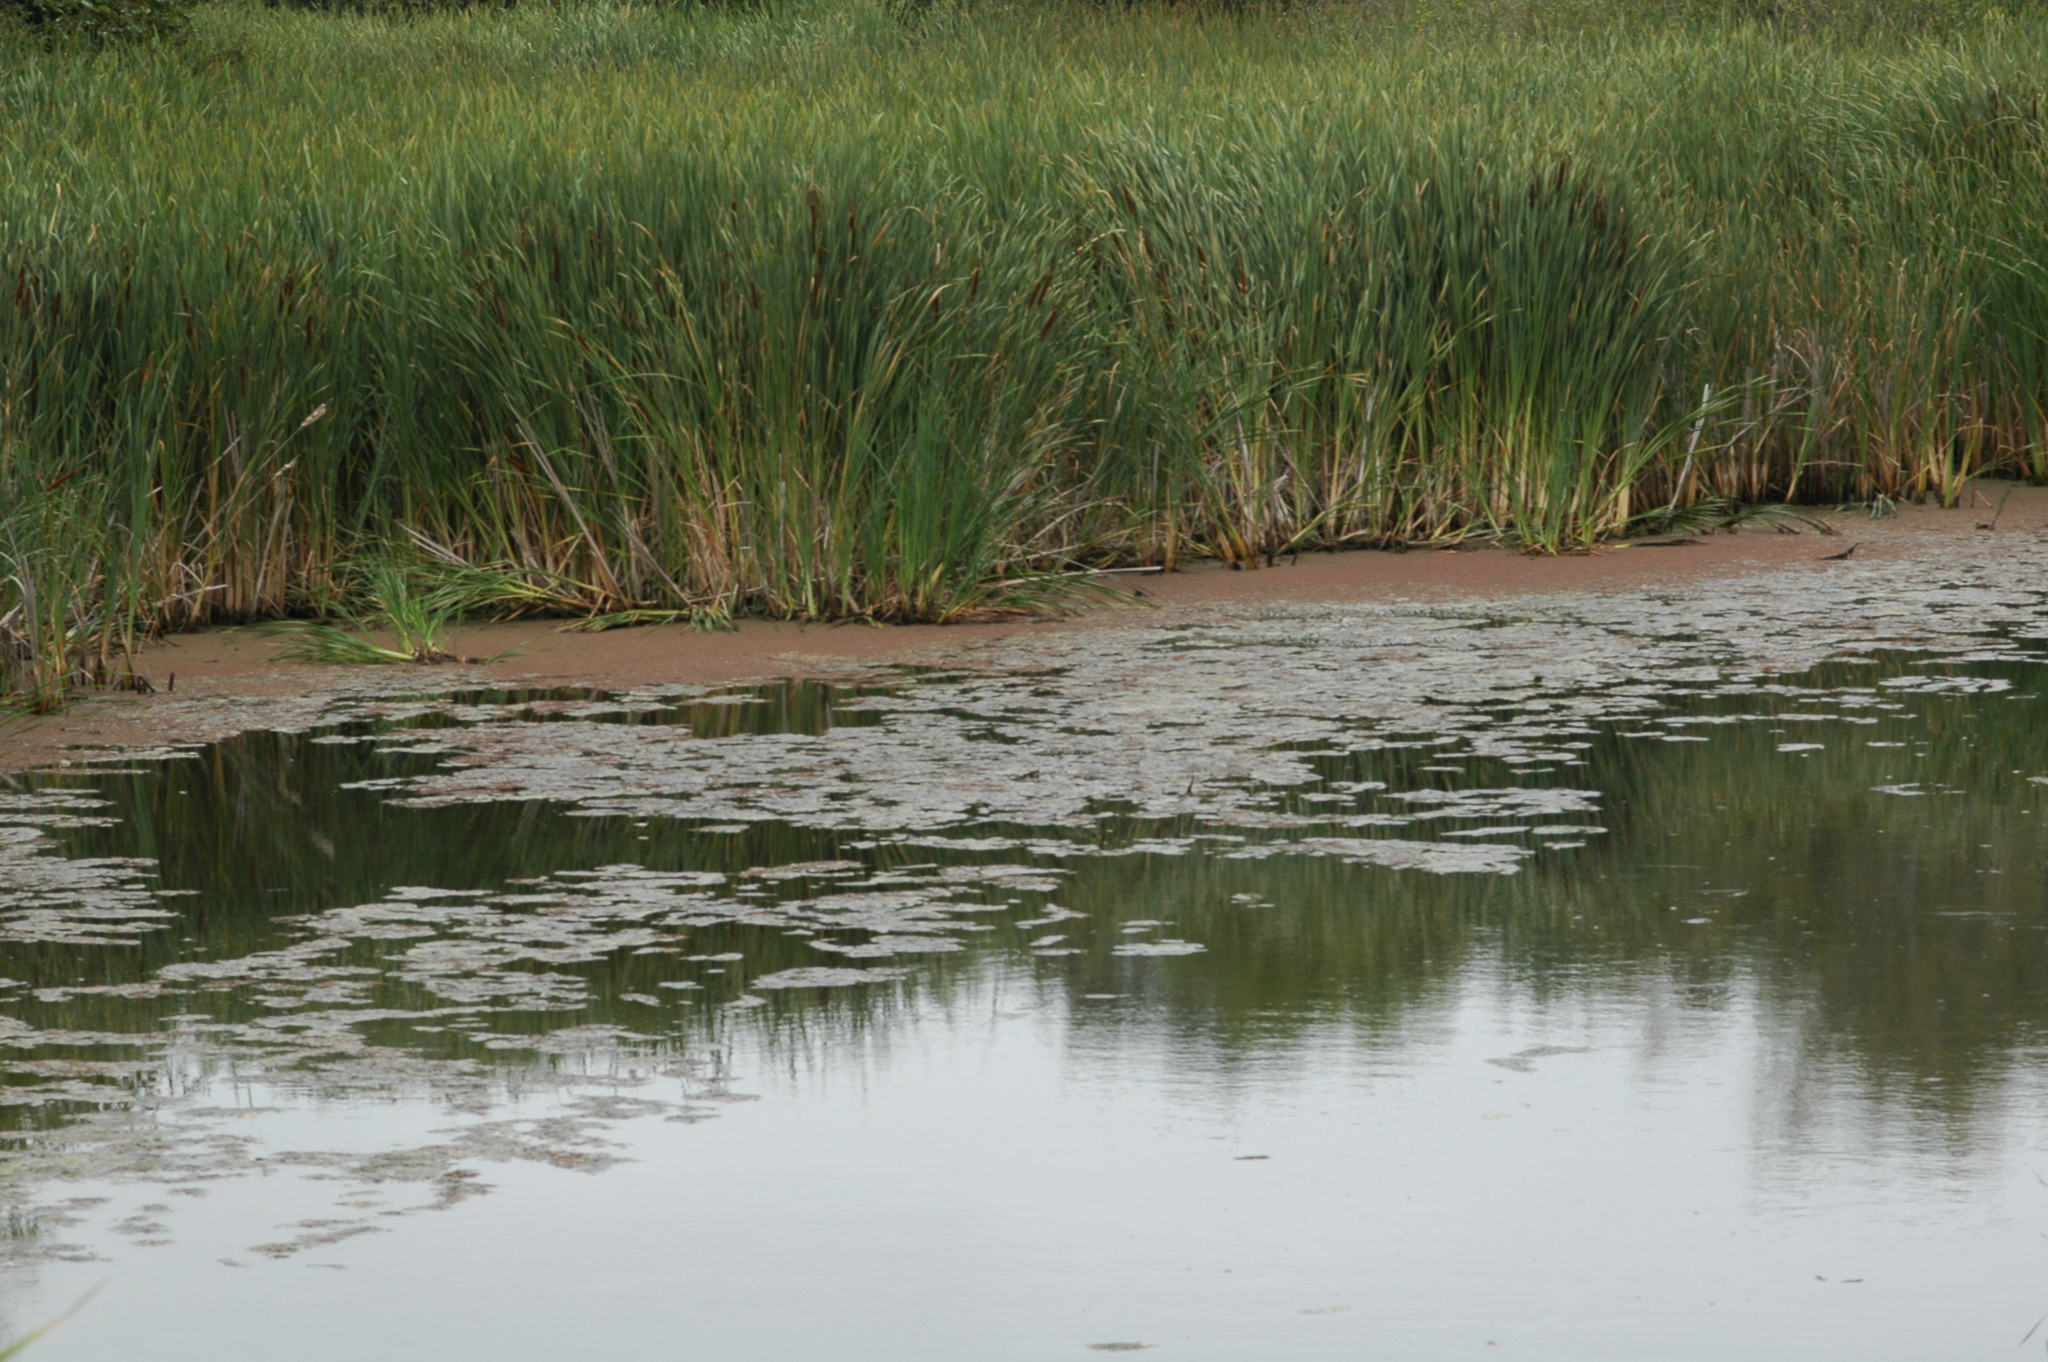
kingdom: Plantae
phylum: Tracheophyta
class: Polypodiopsida
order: Salviniales
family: Salviniaceae
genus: Azolla
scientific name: Azolla cristata
